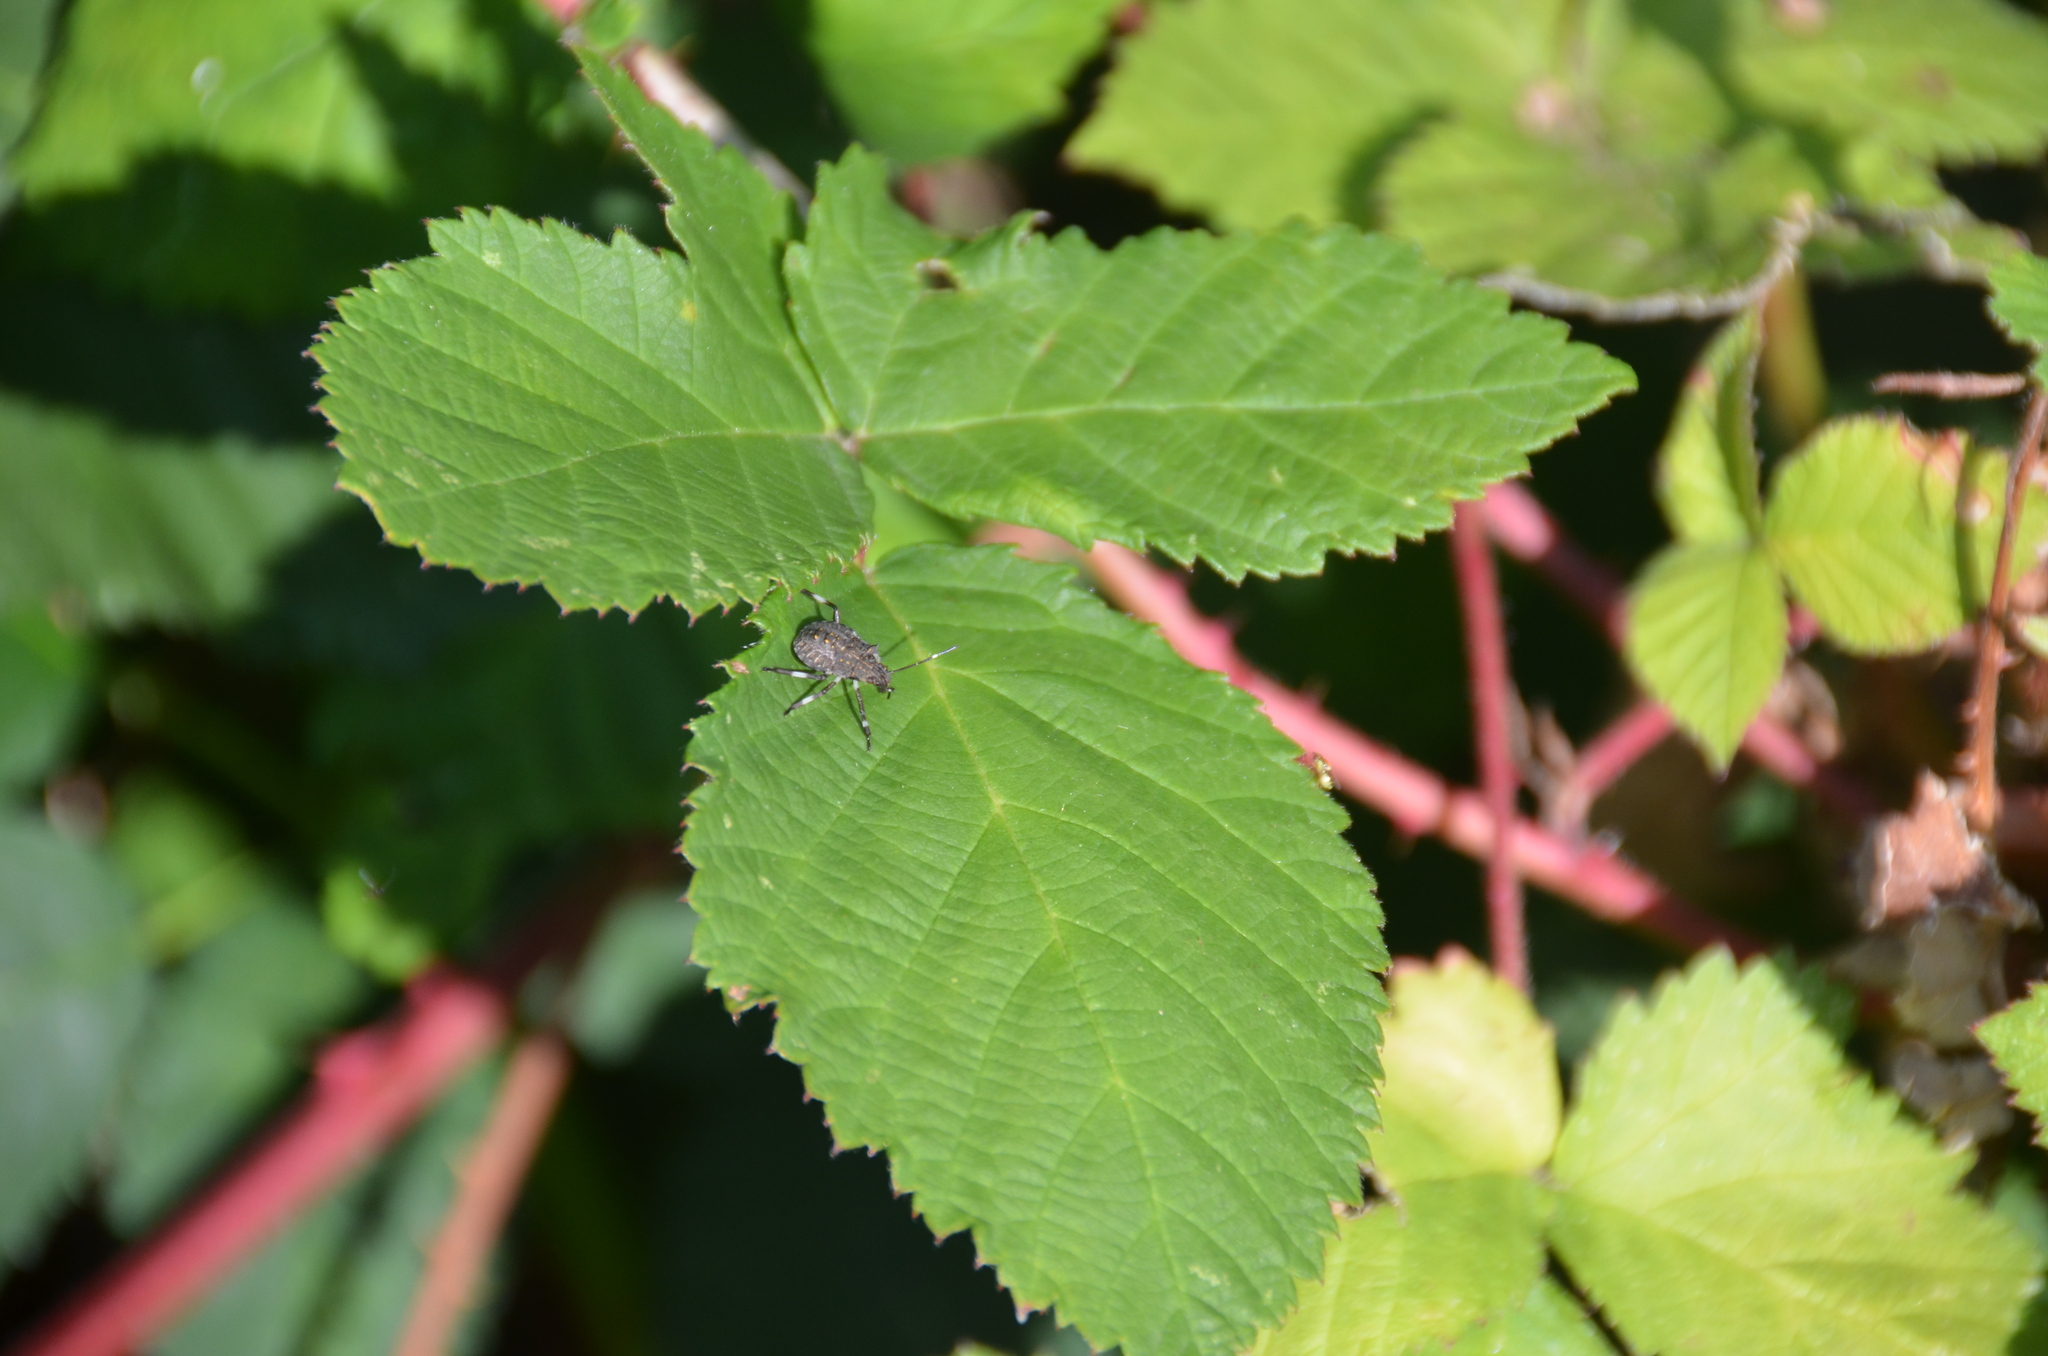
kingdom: Animalia
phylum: Arthropoda
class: Insecta
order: Hemiptera
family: Pentatomidae
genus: Halyomorpha
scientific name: Halyomorpha halys
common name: Brown marmorated stink bug
